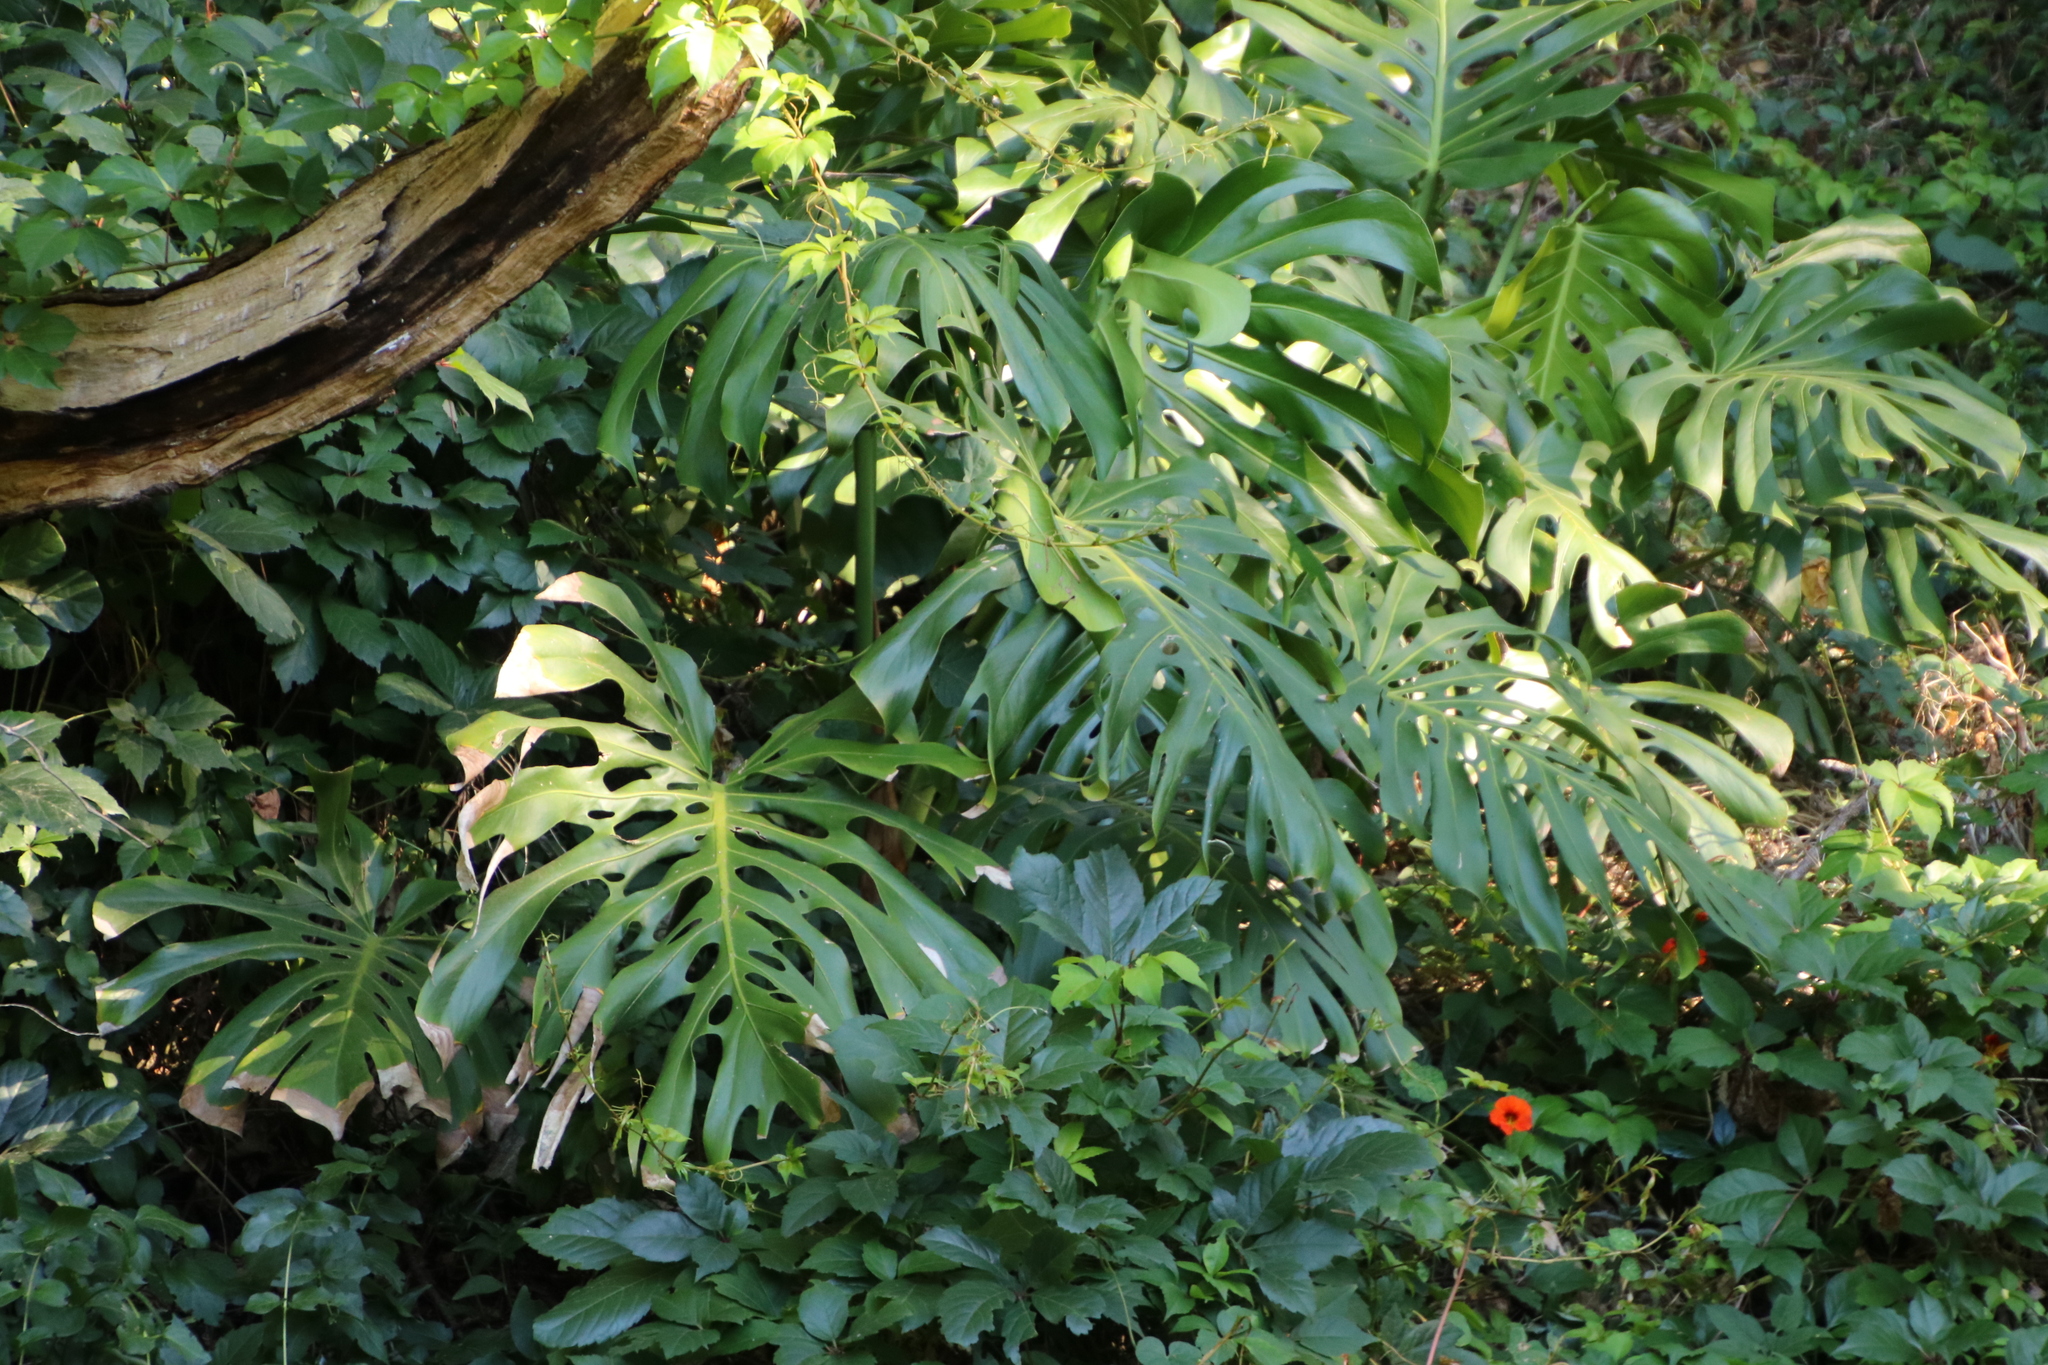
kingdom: Plantae
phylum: Tracheophyta
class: Liliopsida
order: Alismatales
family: Araceae
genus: Monstera
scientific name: Monstera deliciosa
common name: Cut-leaf-philodendron
